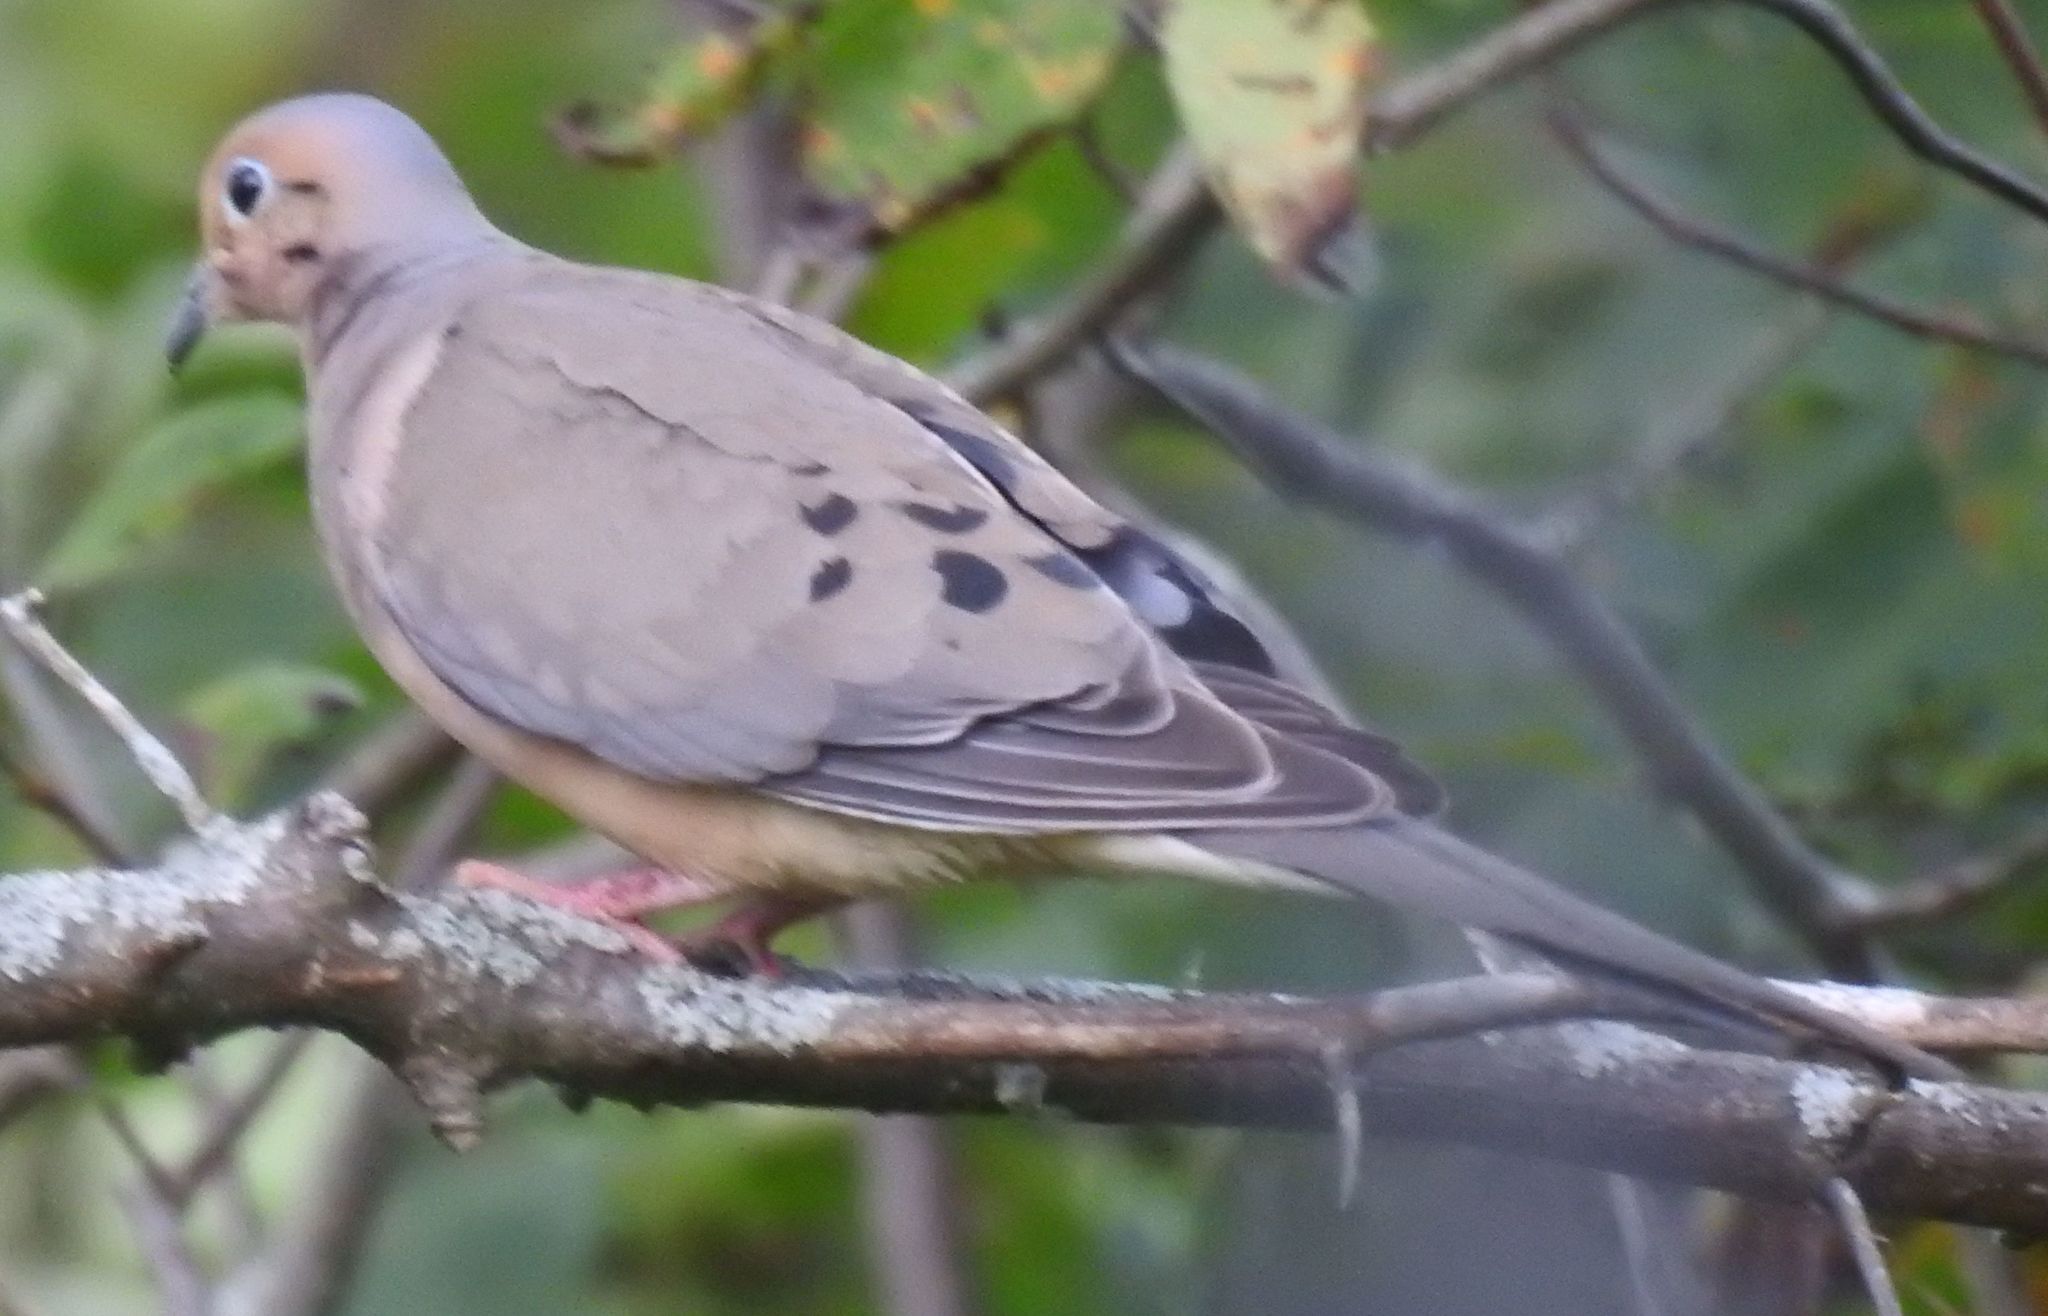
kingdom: Animalia
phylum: Chordata
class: Aves
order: Columbiformes
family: Columbidae
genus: Zenaida
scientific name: Zenaida macroura
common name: Mourning dove
